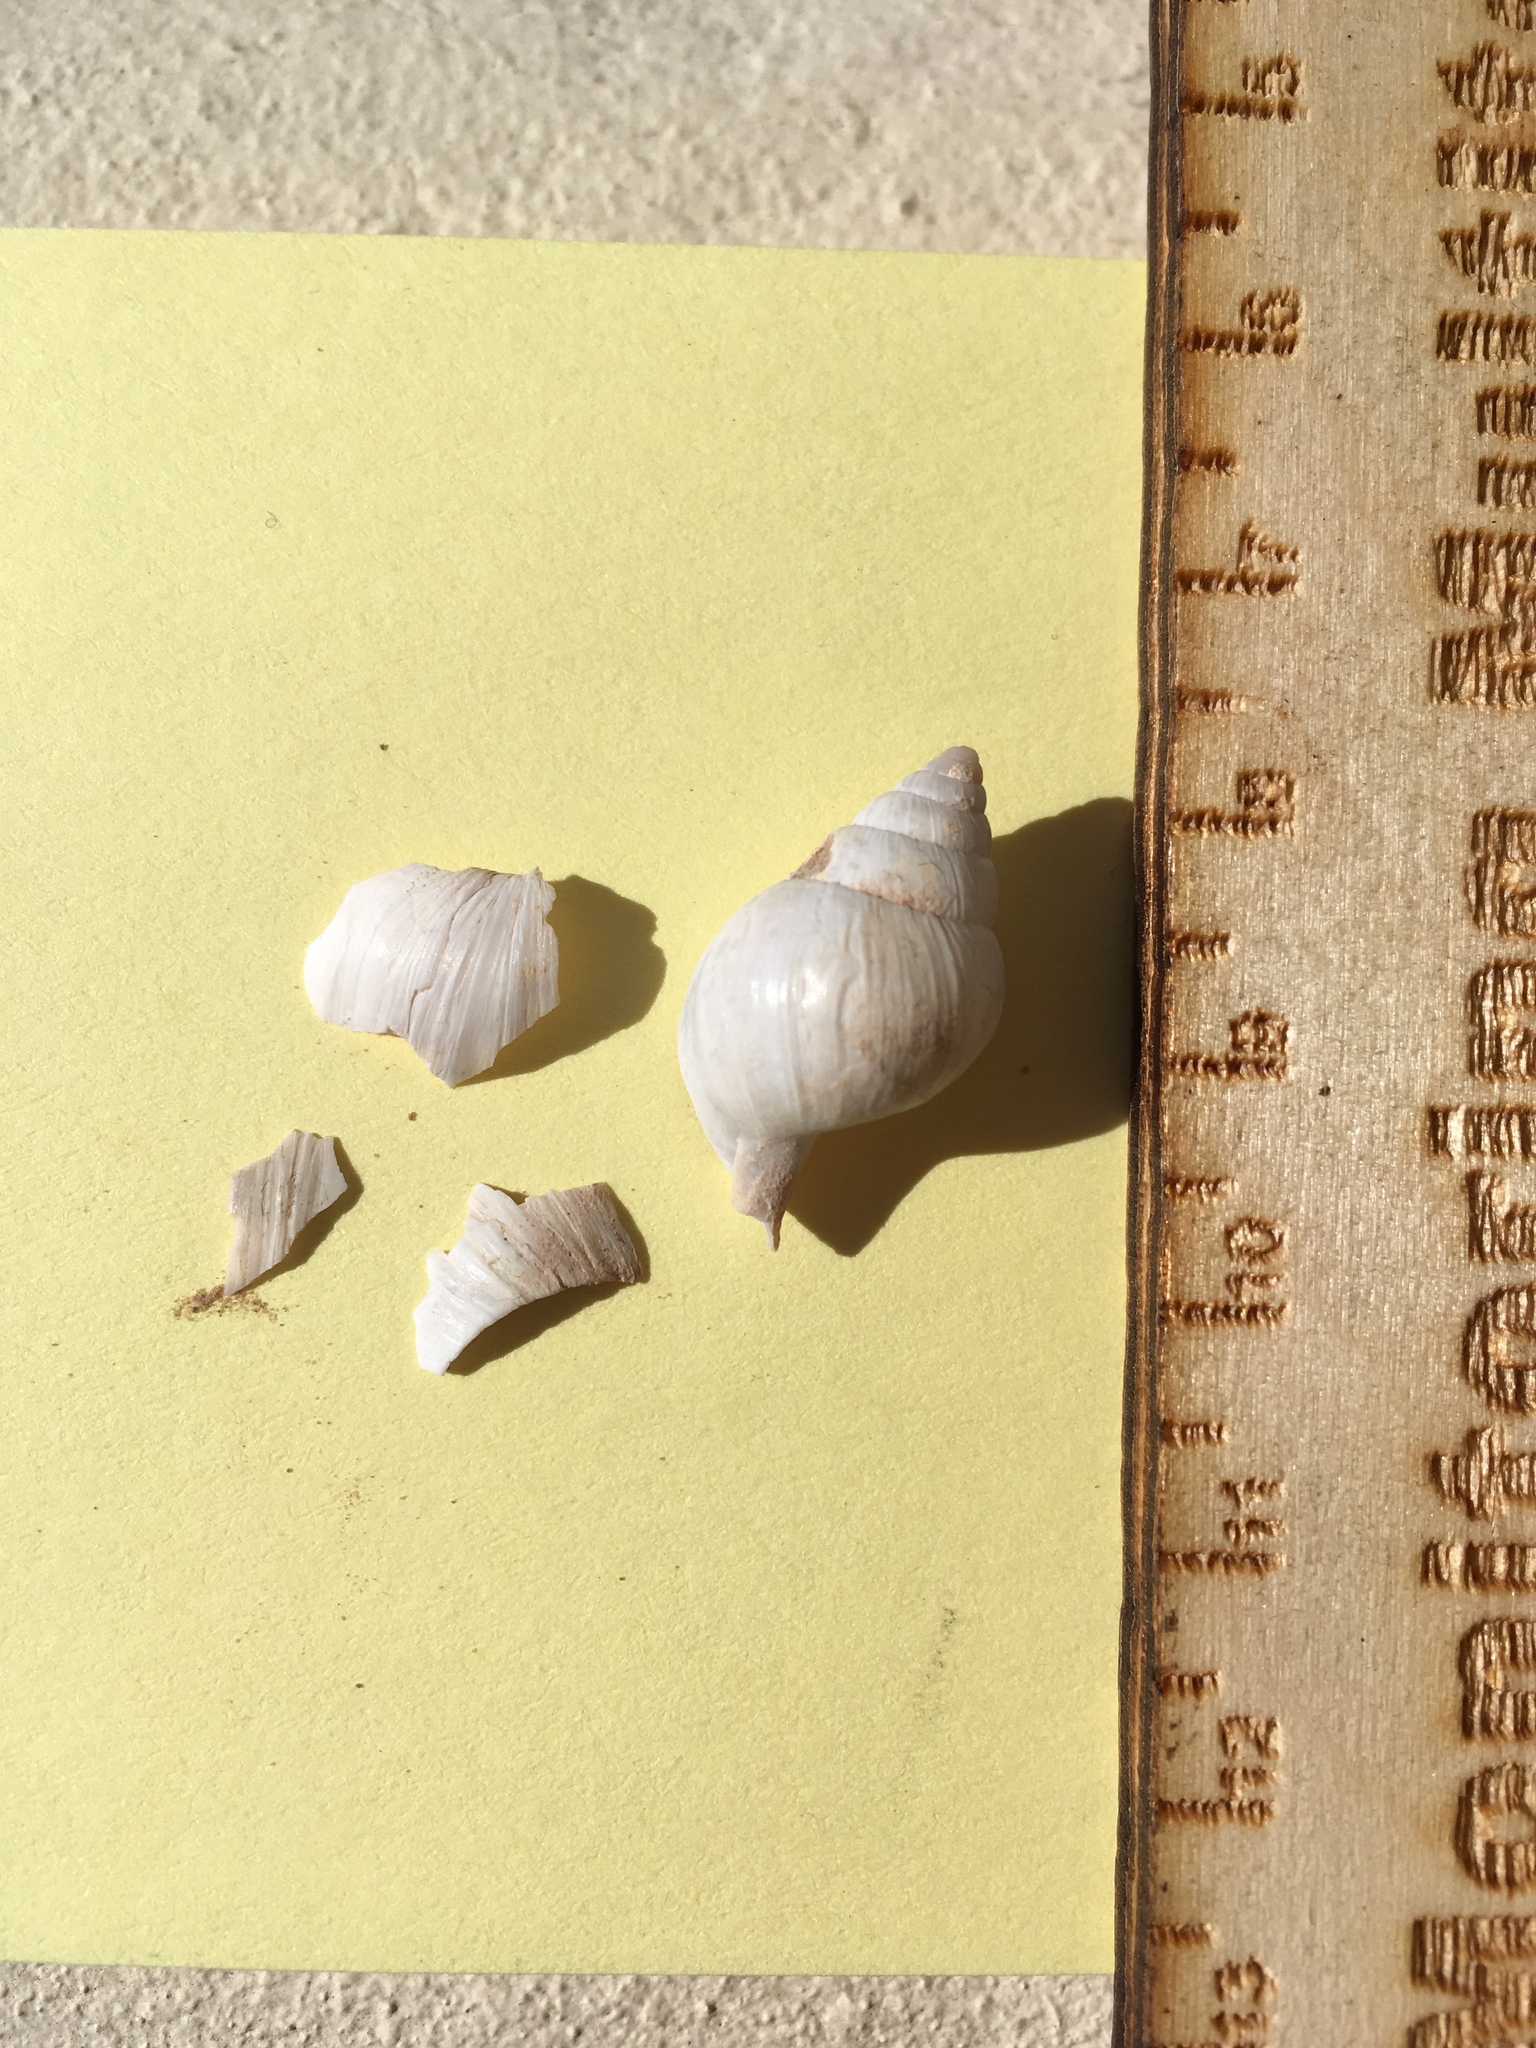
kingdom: Animalia
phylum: Mollusca
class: Gastropoda
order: Stylommatophora
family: Bulimulidae
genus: Rabdotus
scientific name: Rabdotus dealbatus
